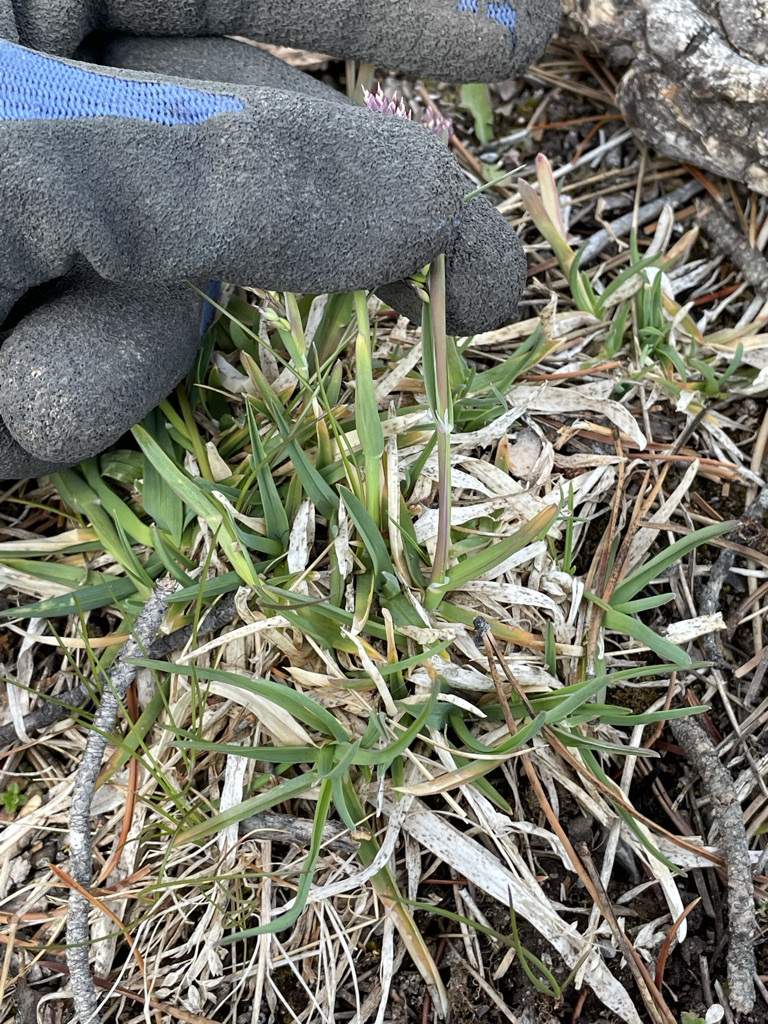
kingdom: Plantae
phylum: Tracheophyta
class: Liliopsida
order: Poales
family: Poaceae
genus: Poa
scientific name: Poa alpina
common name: Alpine bluegrass
